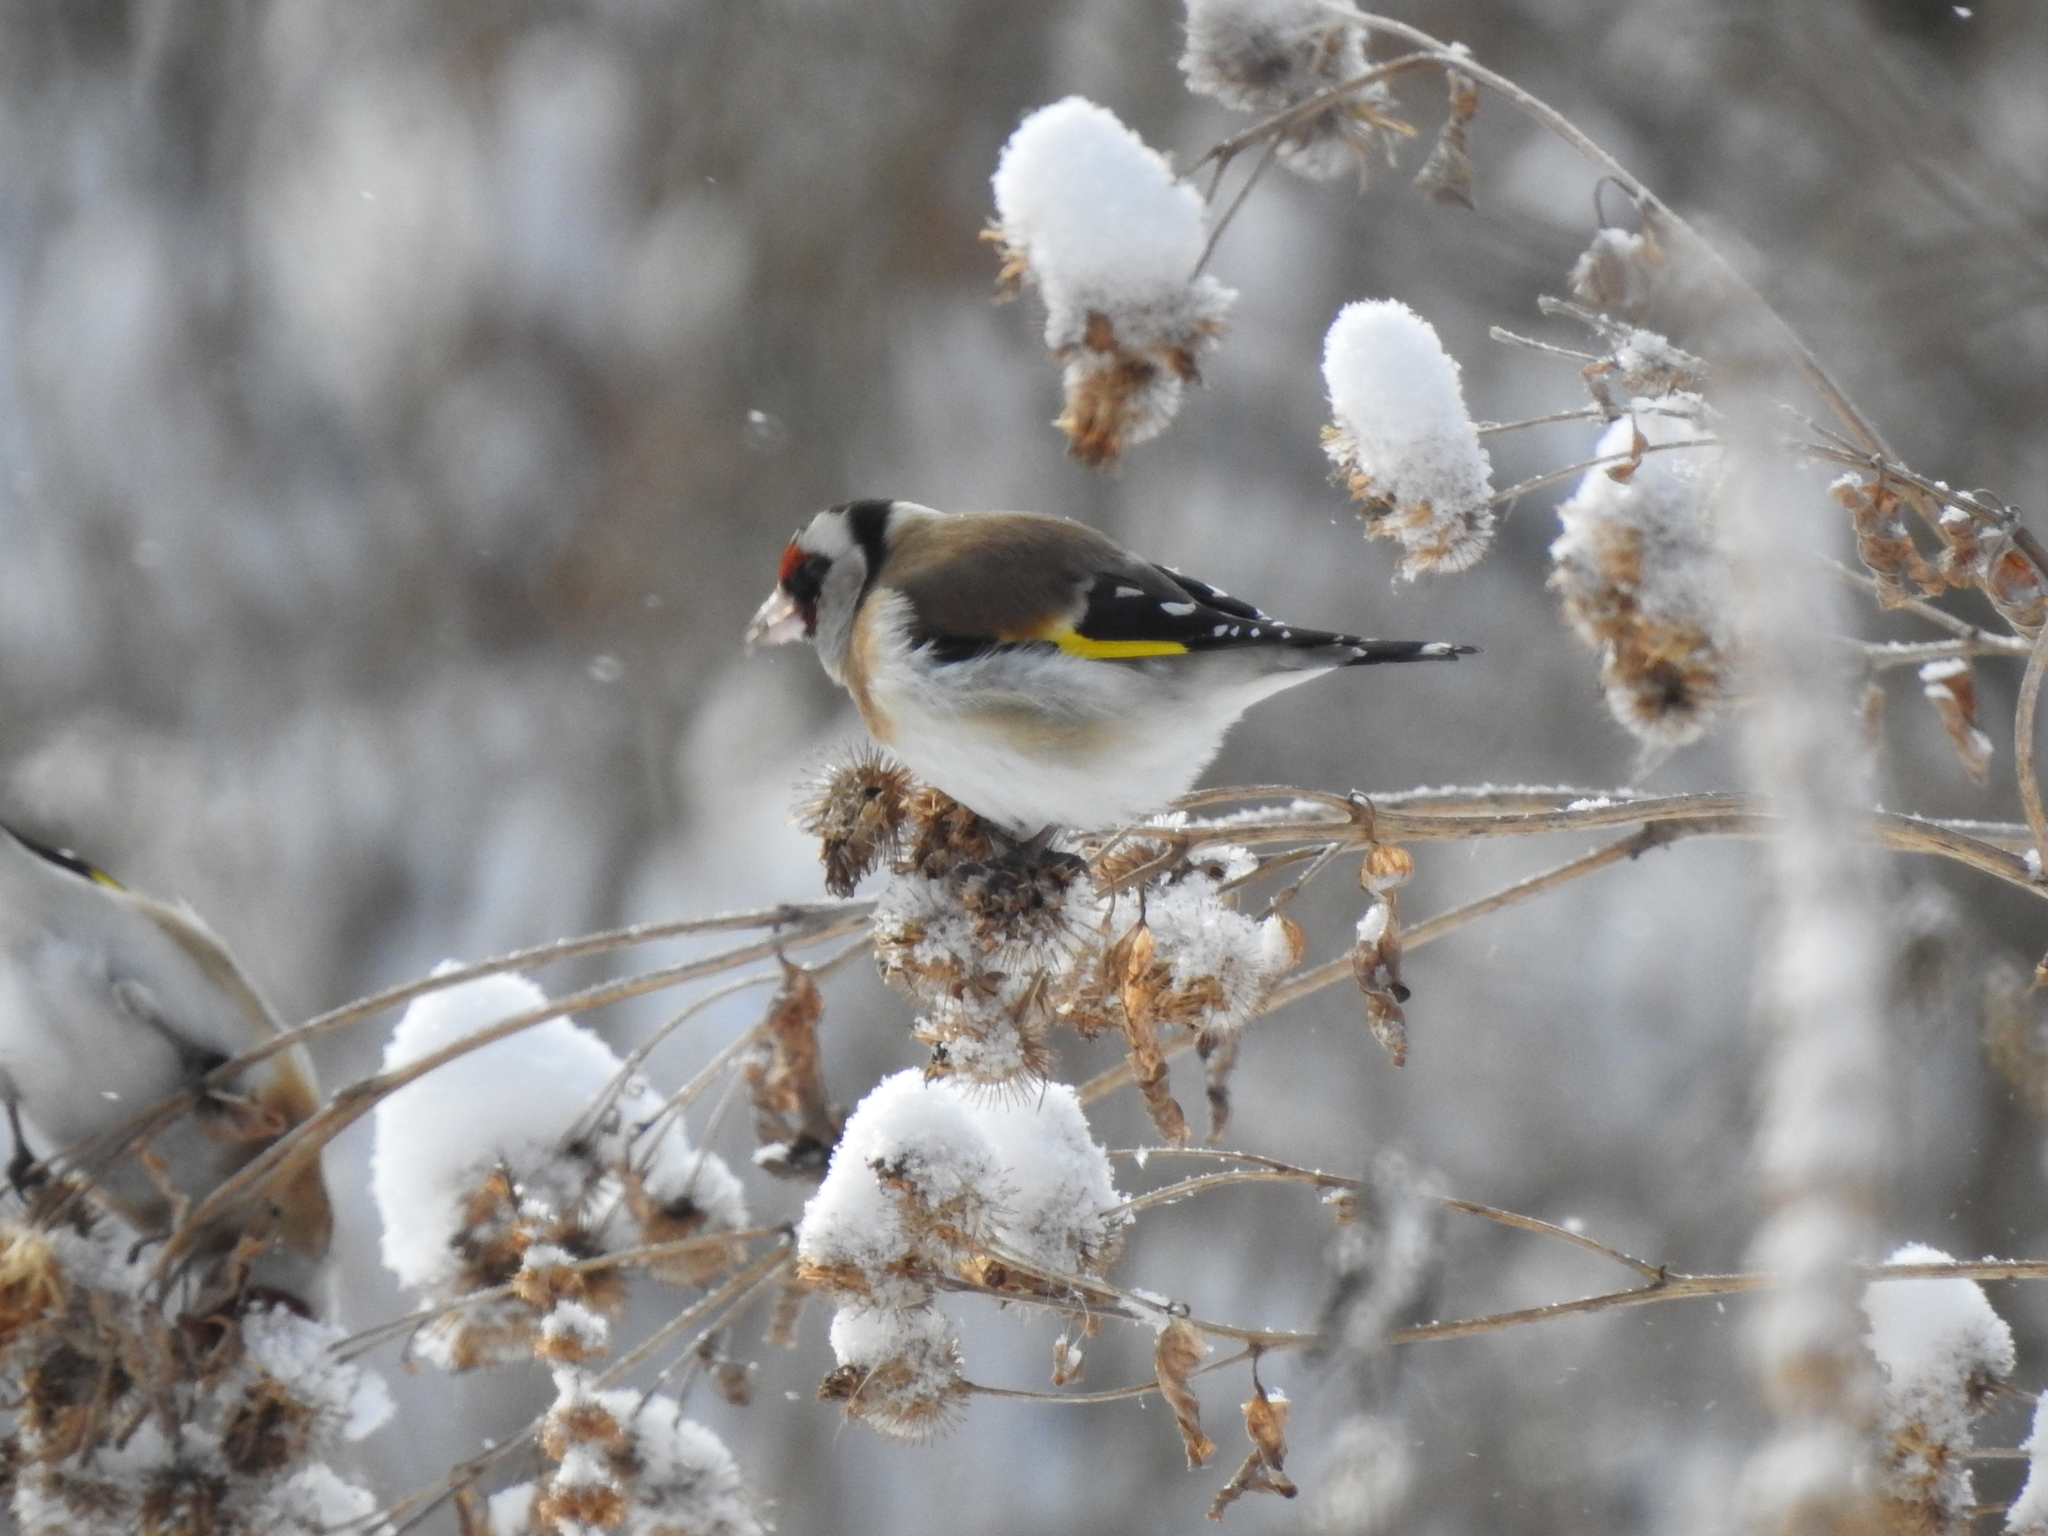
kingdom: Animalia
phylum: Chordata
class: Aves
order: Passeriformes
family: Fringillidae
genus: Carduelis
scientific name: Carduelis carduelis
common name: European goldfinch
